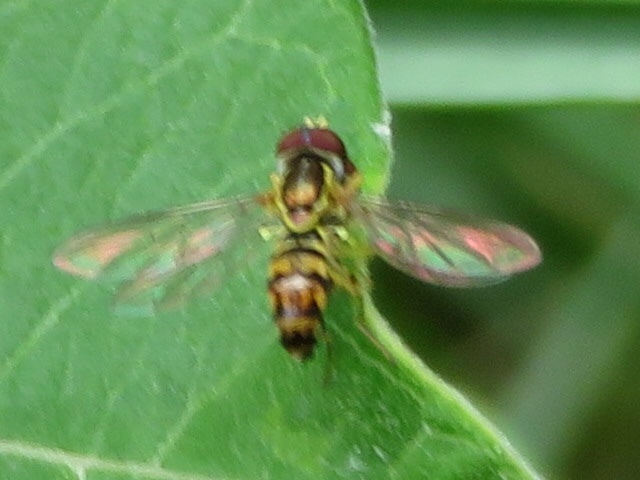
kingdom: Animalia
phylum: Arthropoda
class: Insecta
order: Diptera
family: Syrphidae
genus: Toxomerus
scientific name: Toxomerus geminatus
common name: Eastern calligrapher
